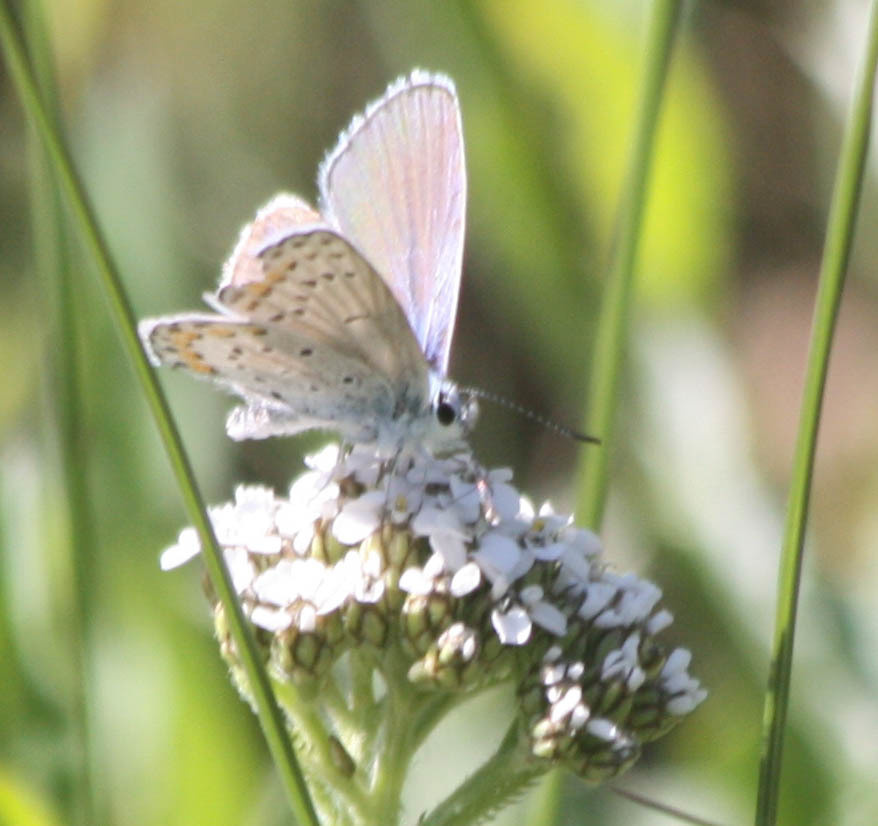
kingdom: Animalia
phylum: Arthropoda
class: Insecta
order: Lepidoptera
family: Lycaenidae
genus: Lycaeides
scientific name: Lycaeides melissa
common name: Melissa blue
